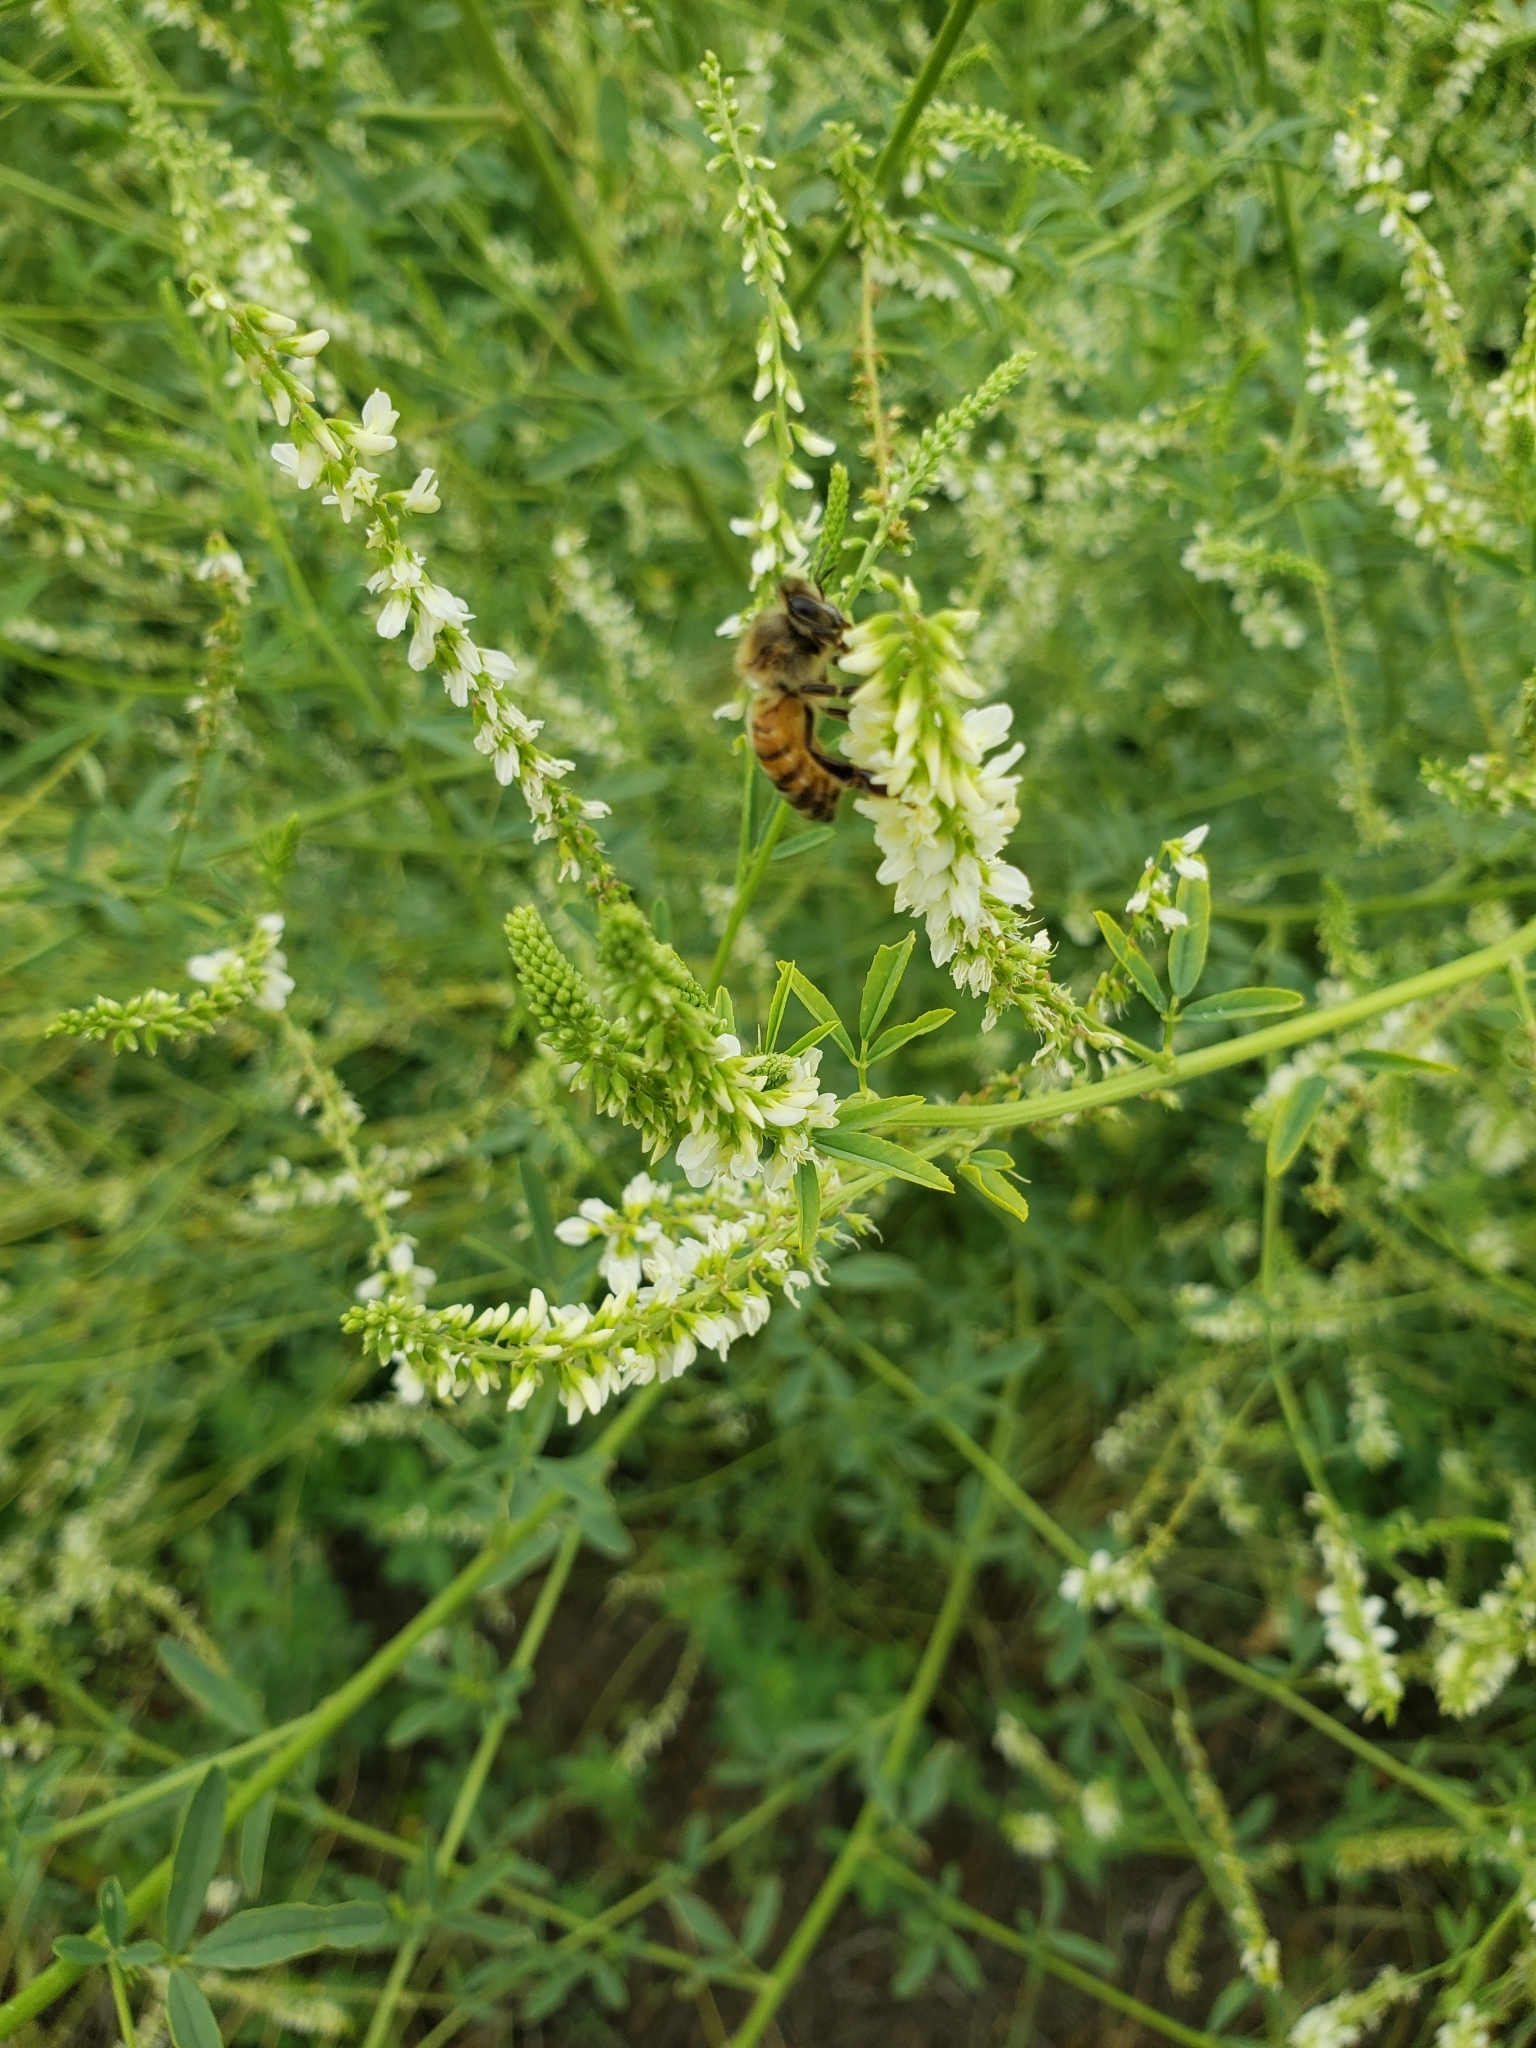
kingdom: Animalia
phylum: Arthropoda
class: Insecta
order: Hymenoptera
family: Apidae
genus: Apis
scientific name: Apis mellifera
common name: Honey bee
